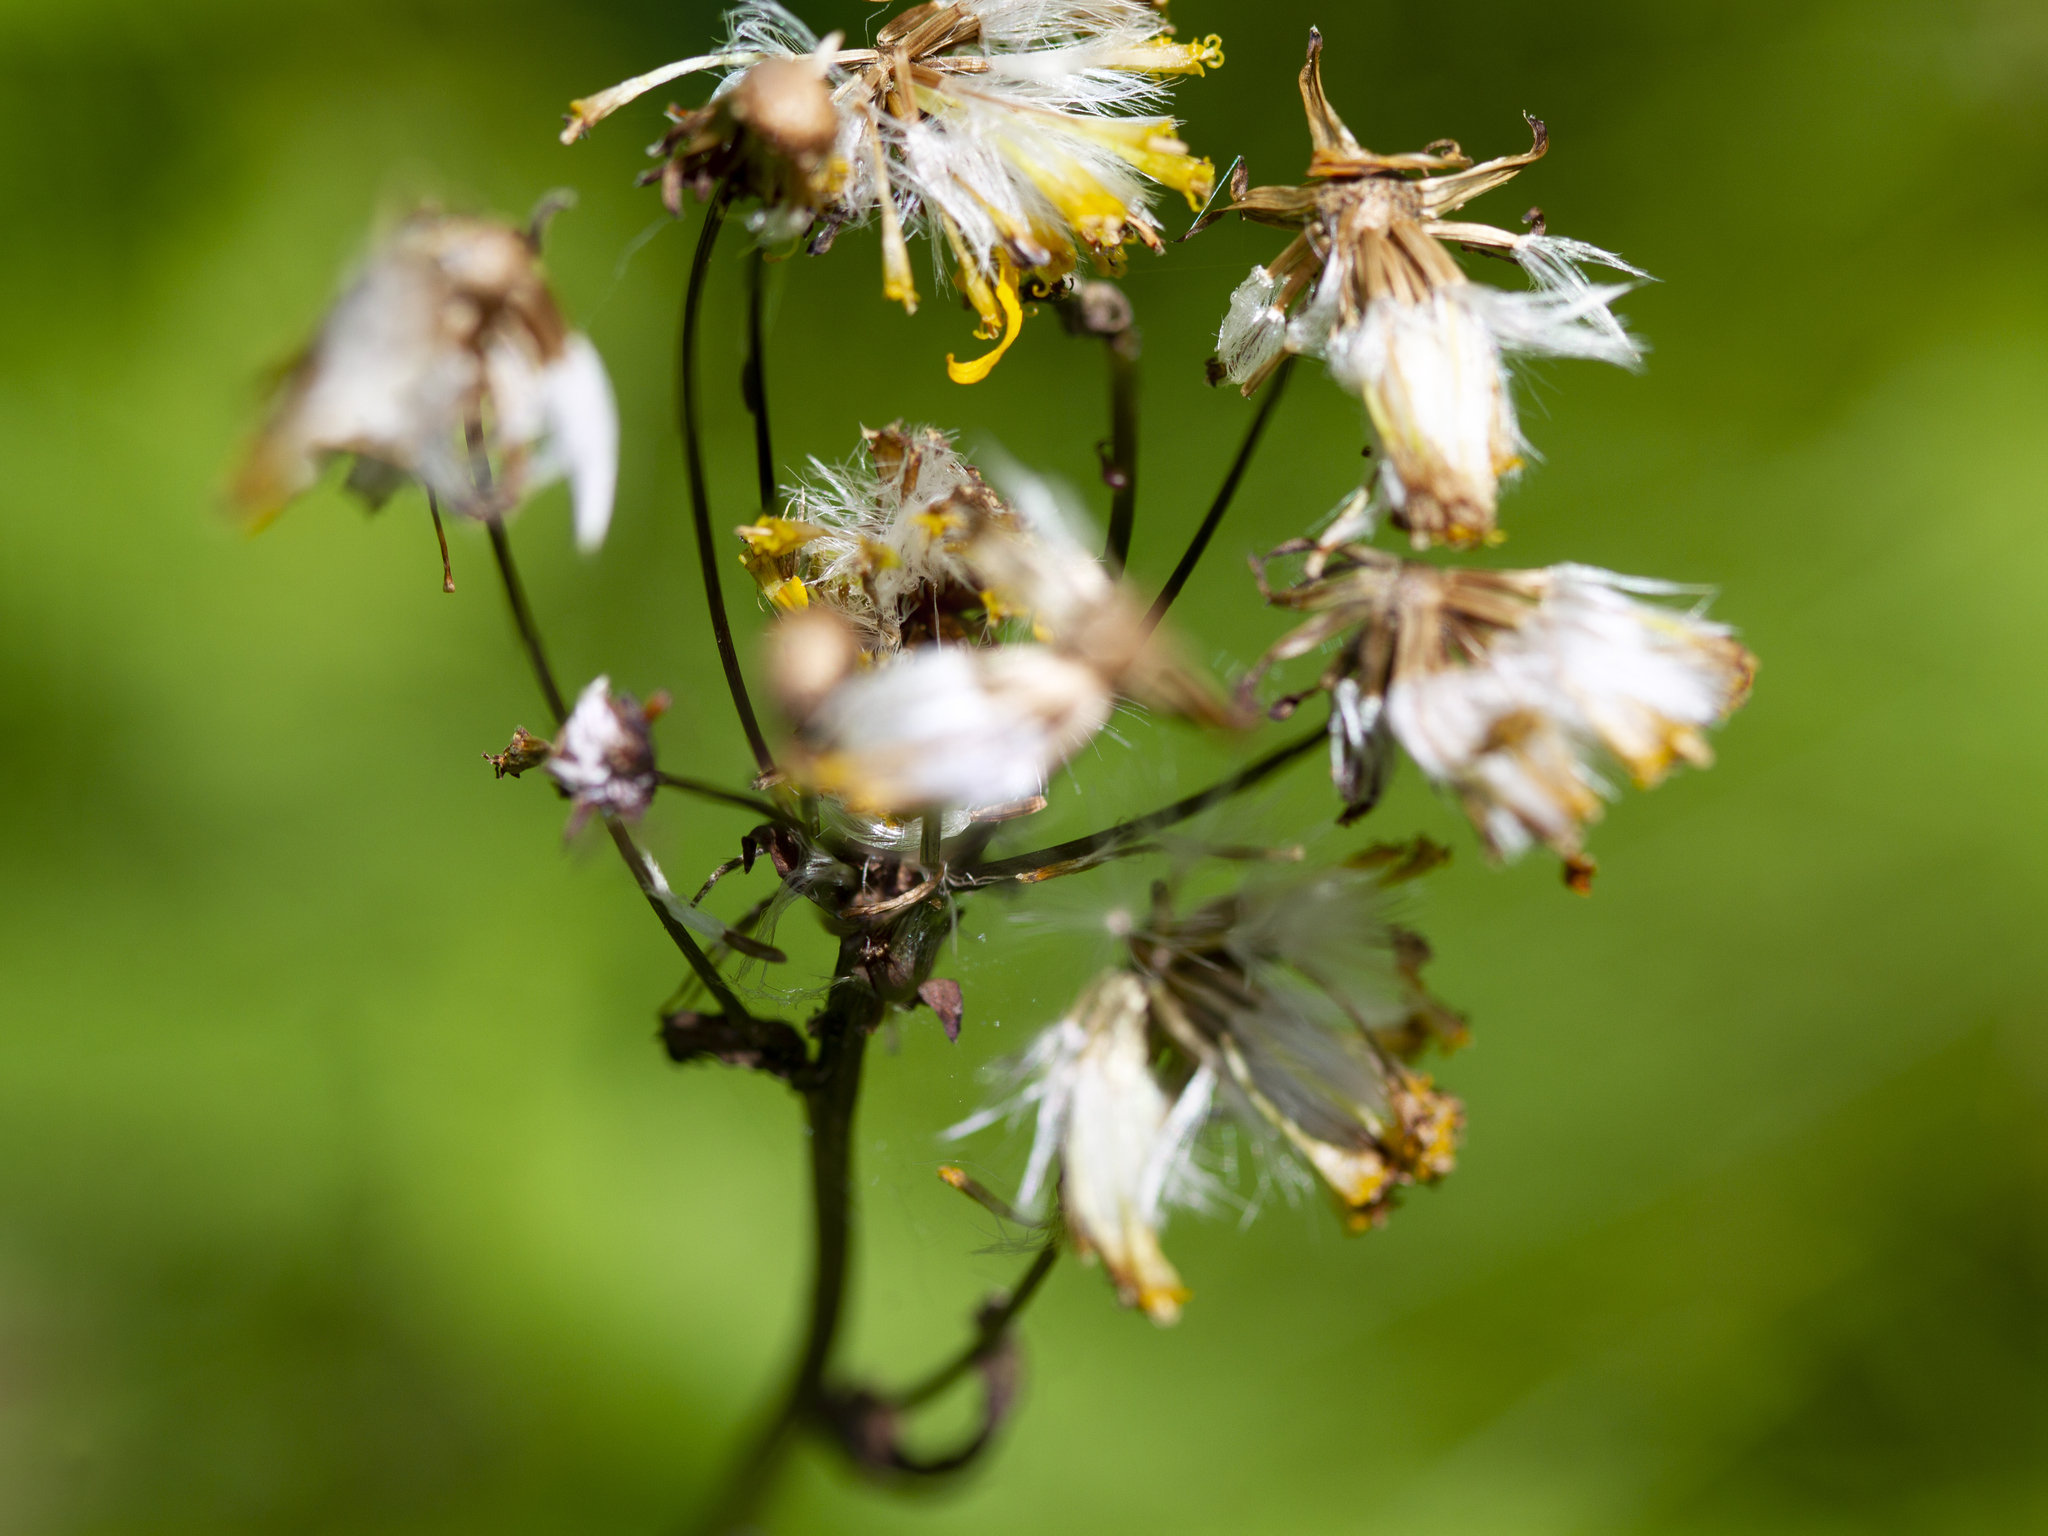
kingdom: Plantae
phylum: Tracheophyta
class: Magnoliopsida
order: Asterales
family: Asteraceae
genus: Packera
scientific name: Packera aurea
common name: Golden groundsel
